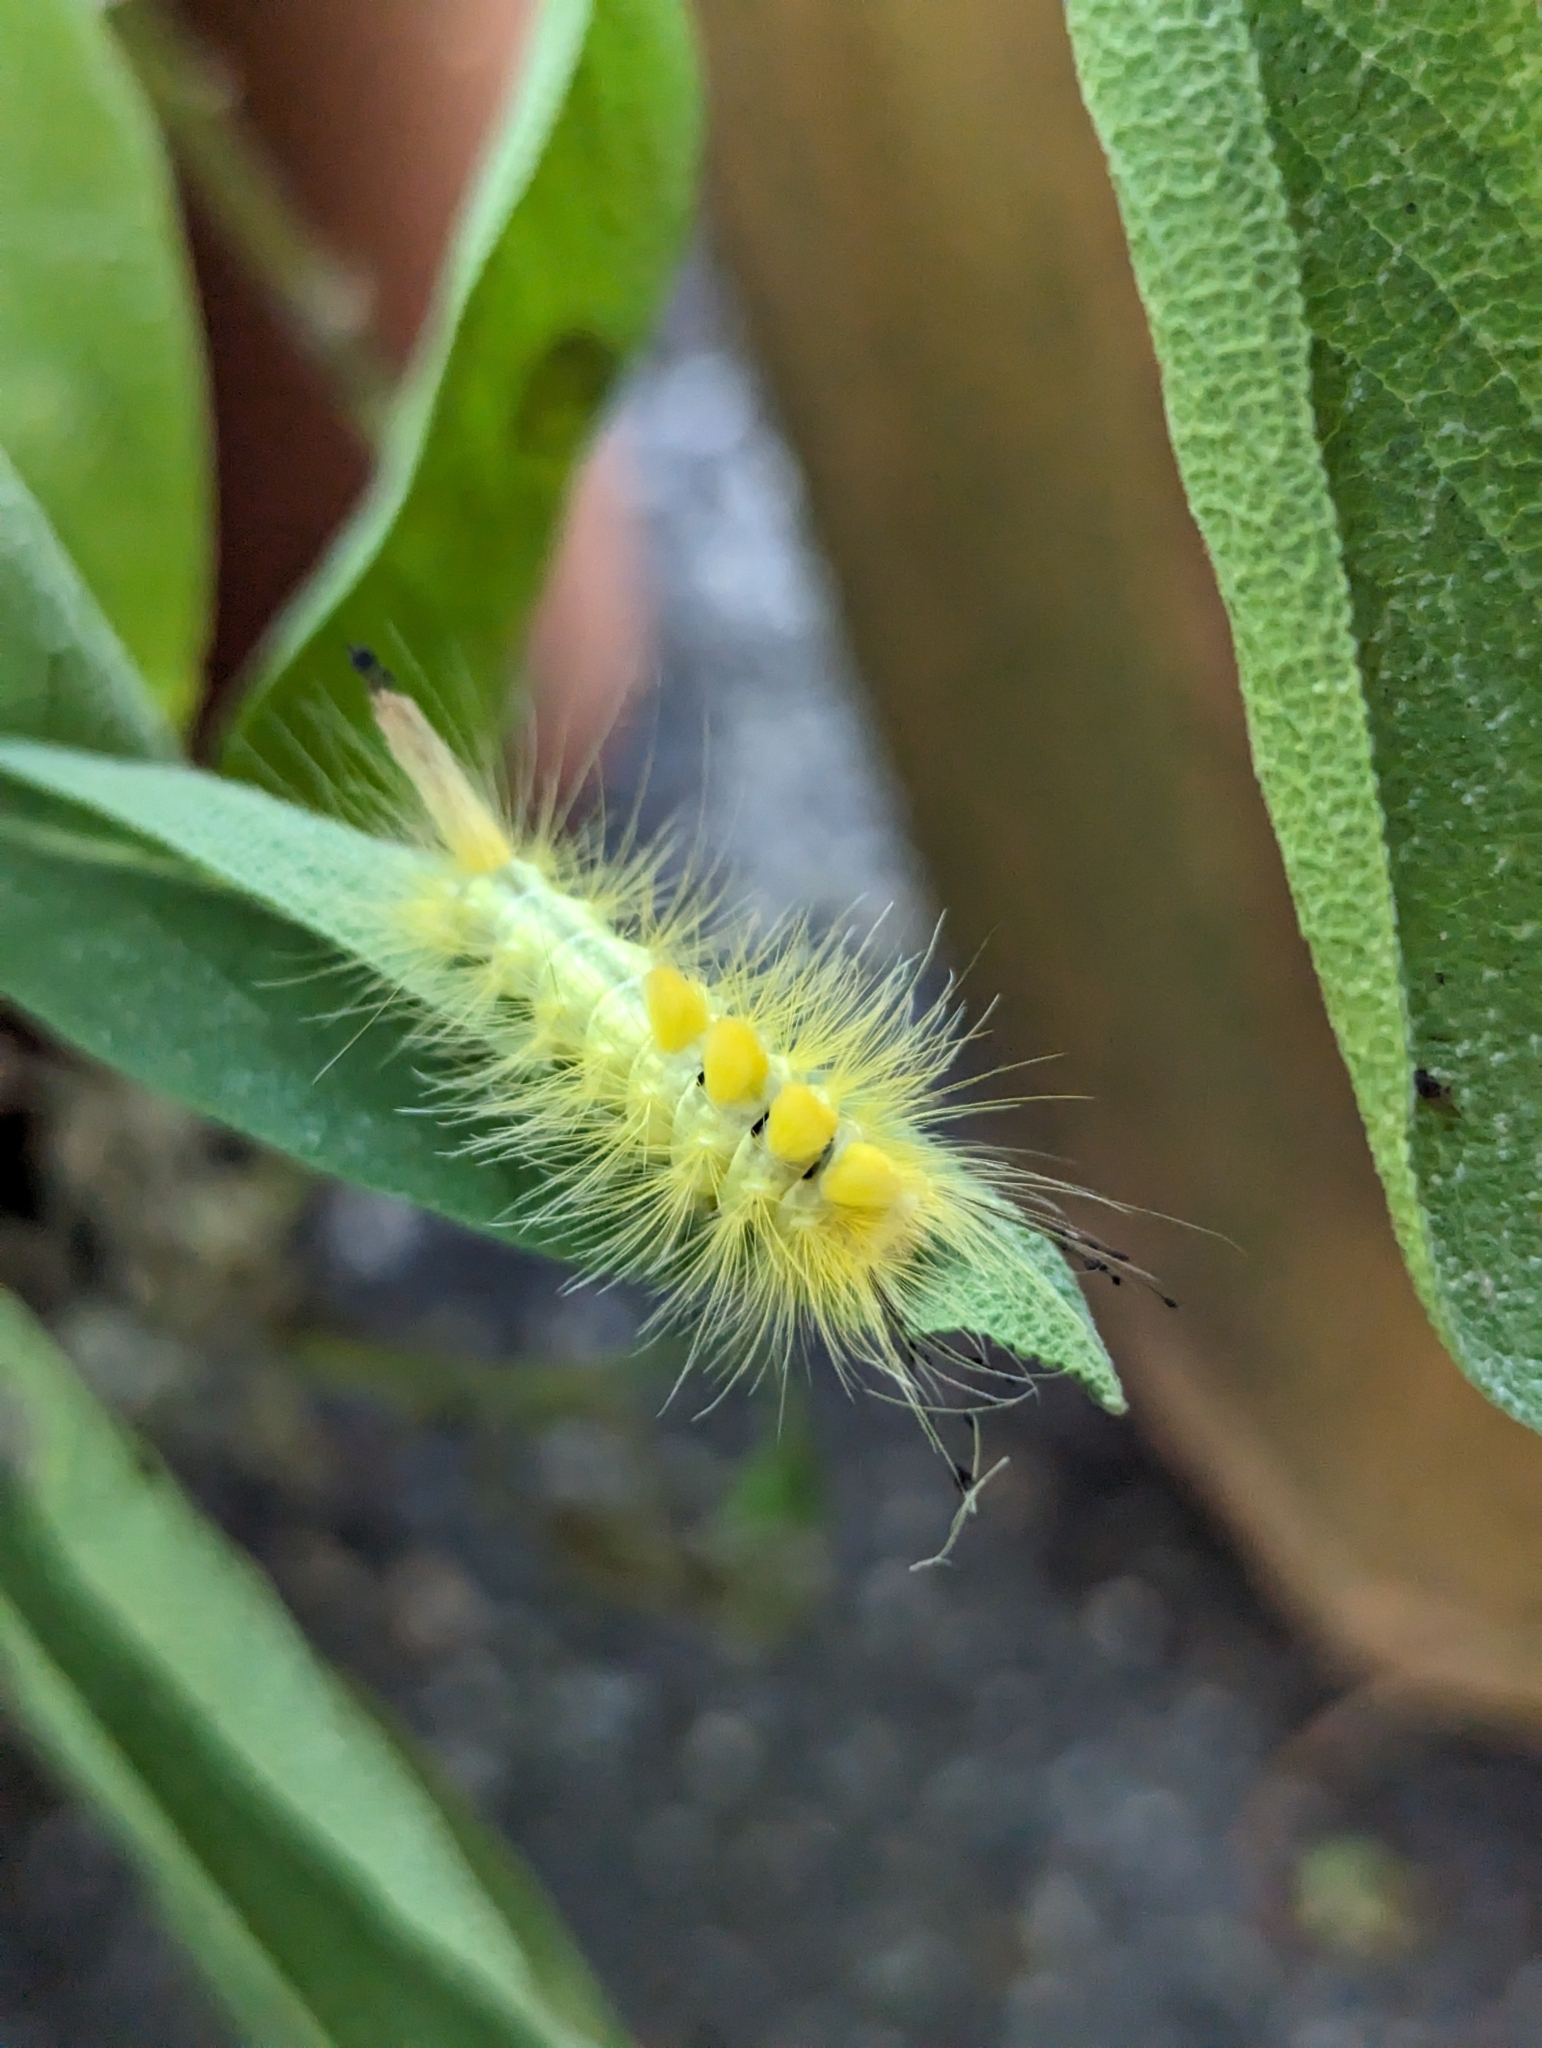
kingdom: Animalia
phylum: Arthropoda
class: Insecta
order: Lepidoptera
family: Erebidae
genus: Orgyia
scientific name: Orgyia definita
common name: Definite tussock moth
